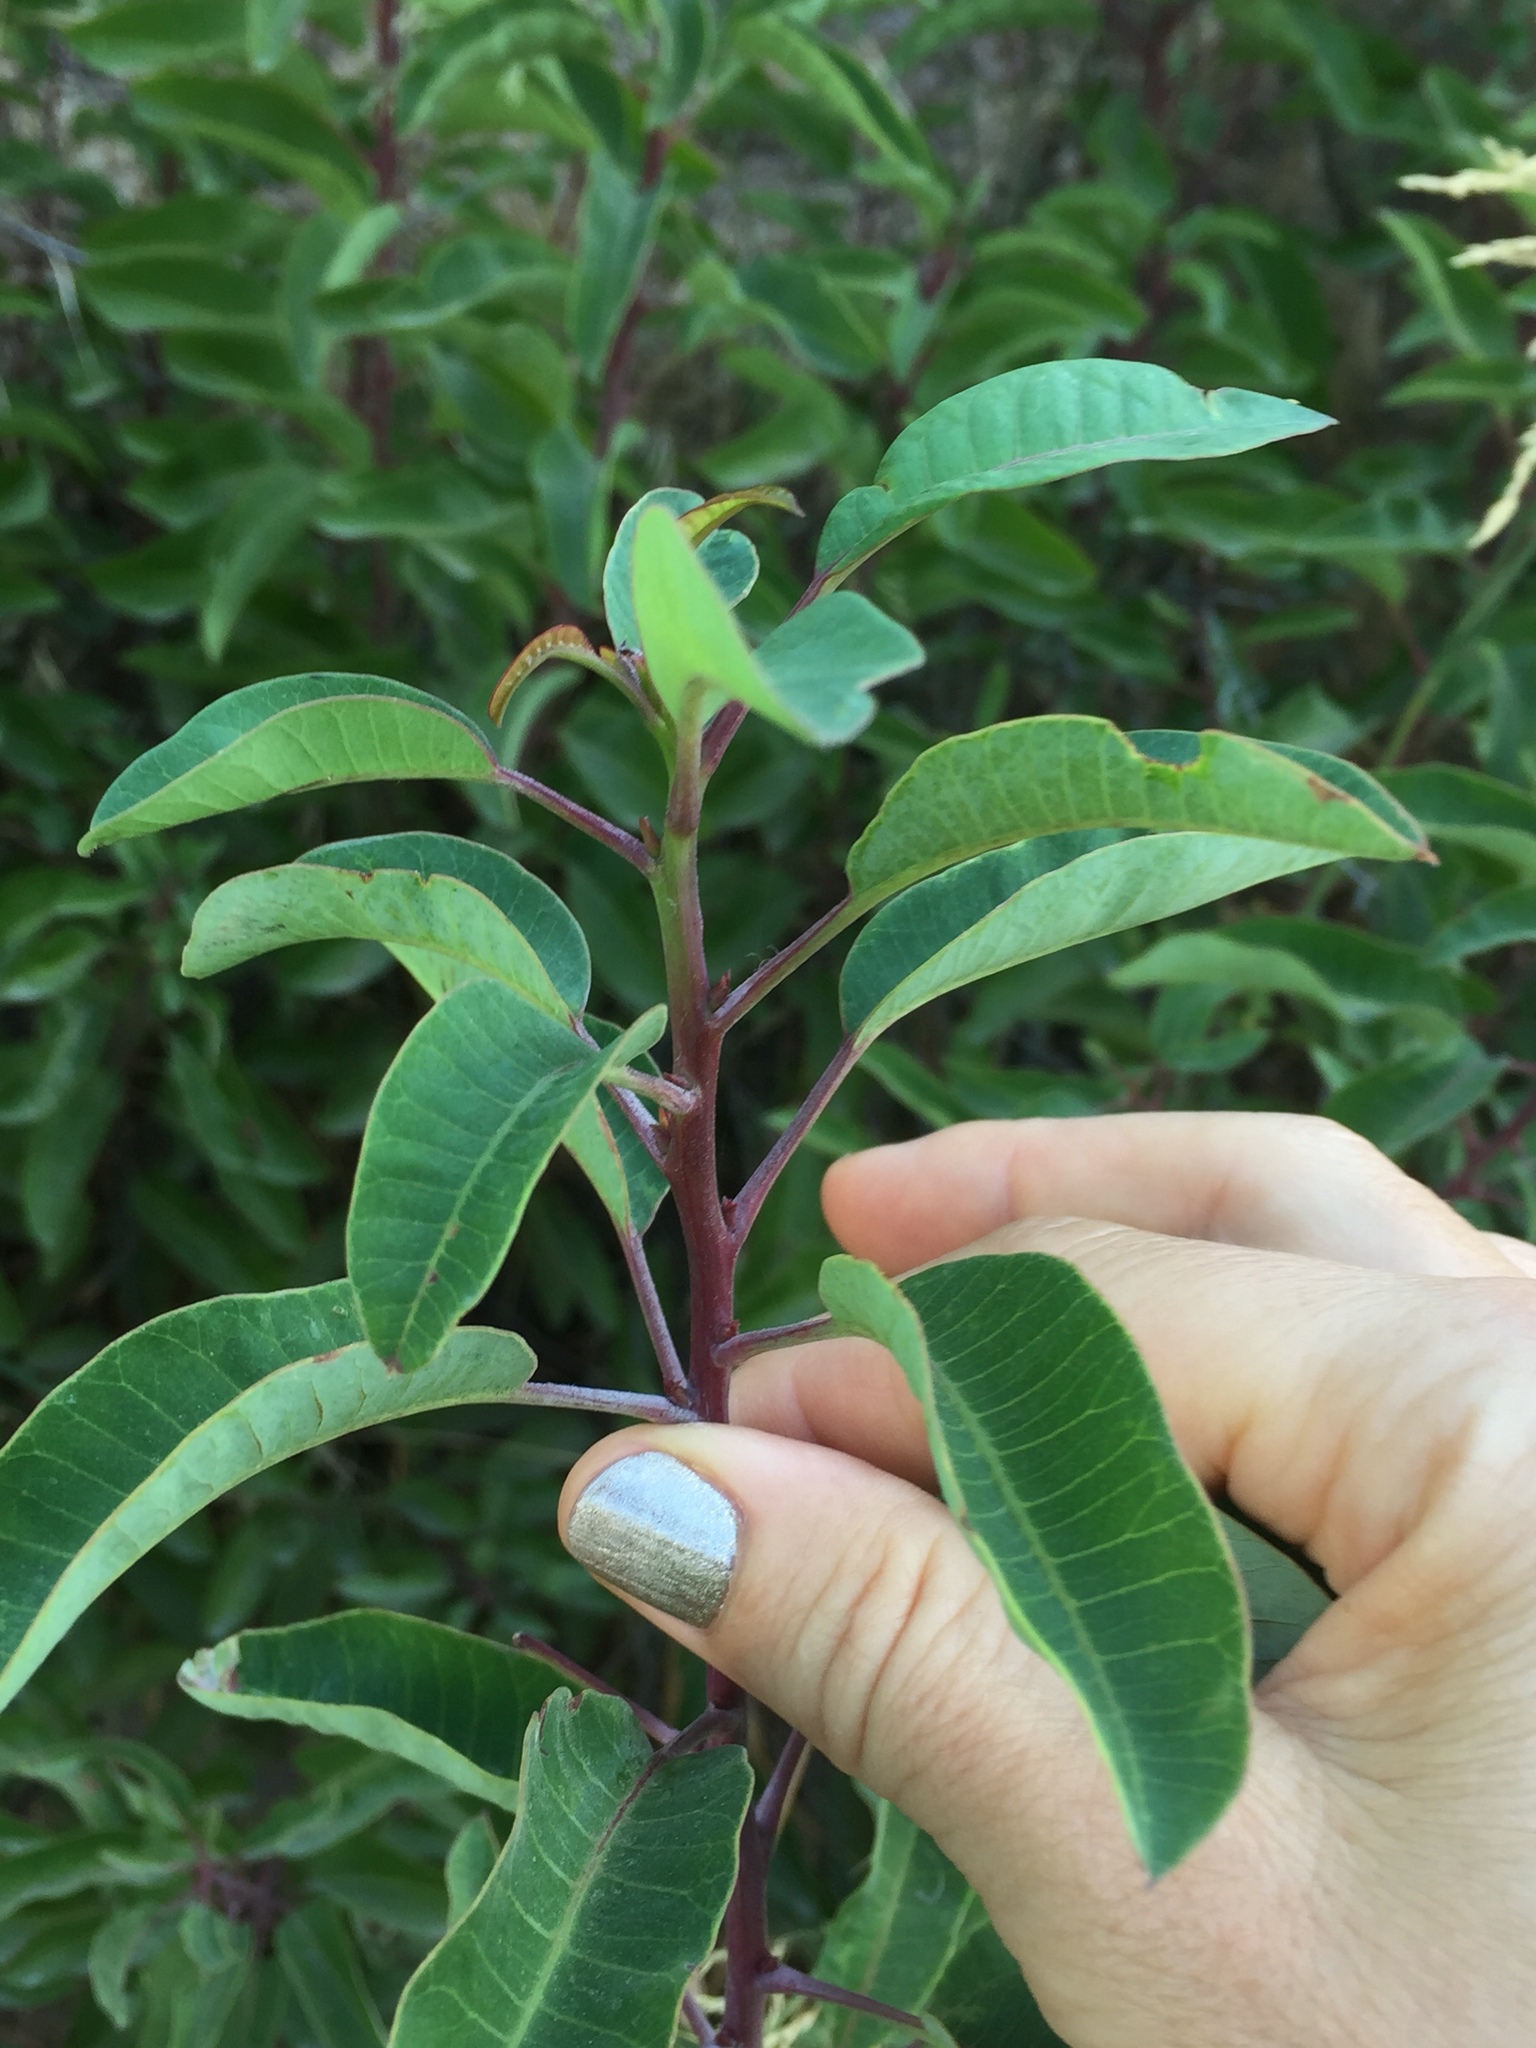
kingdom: Plantae
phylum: Tracheophyta
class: Magnoliopsida
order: Sapindales
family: Anacardiaceae
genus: Malosma
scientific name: Malosma laurina
